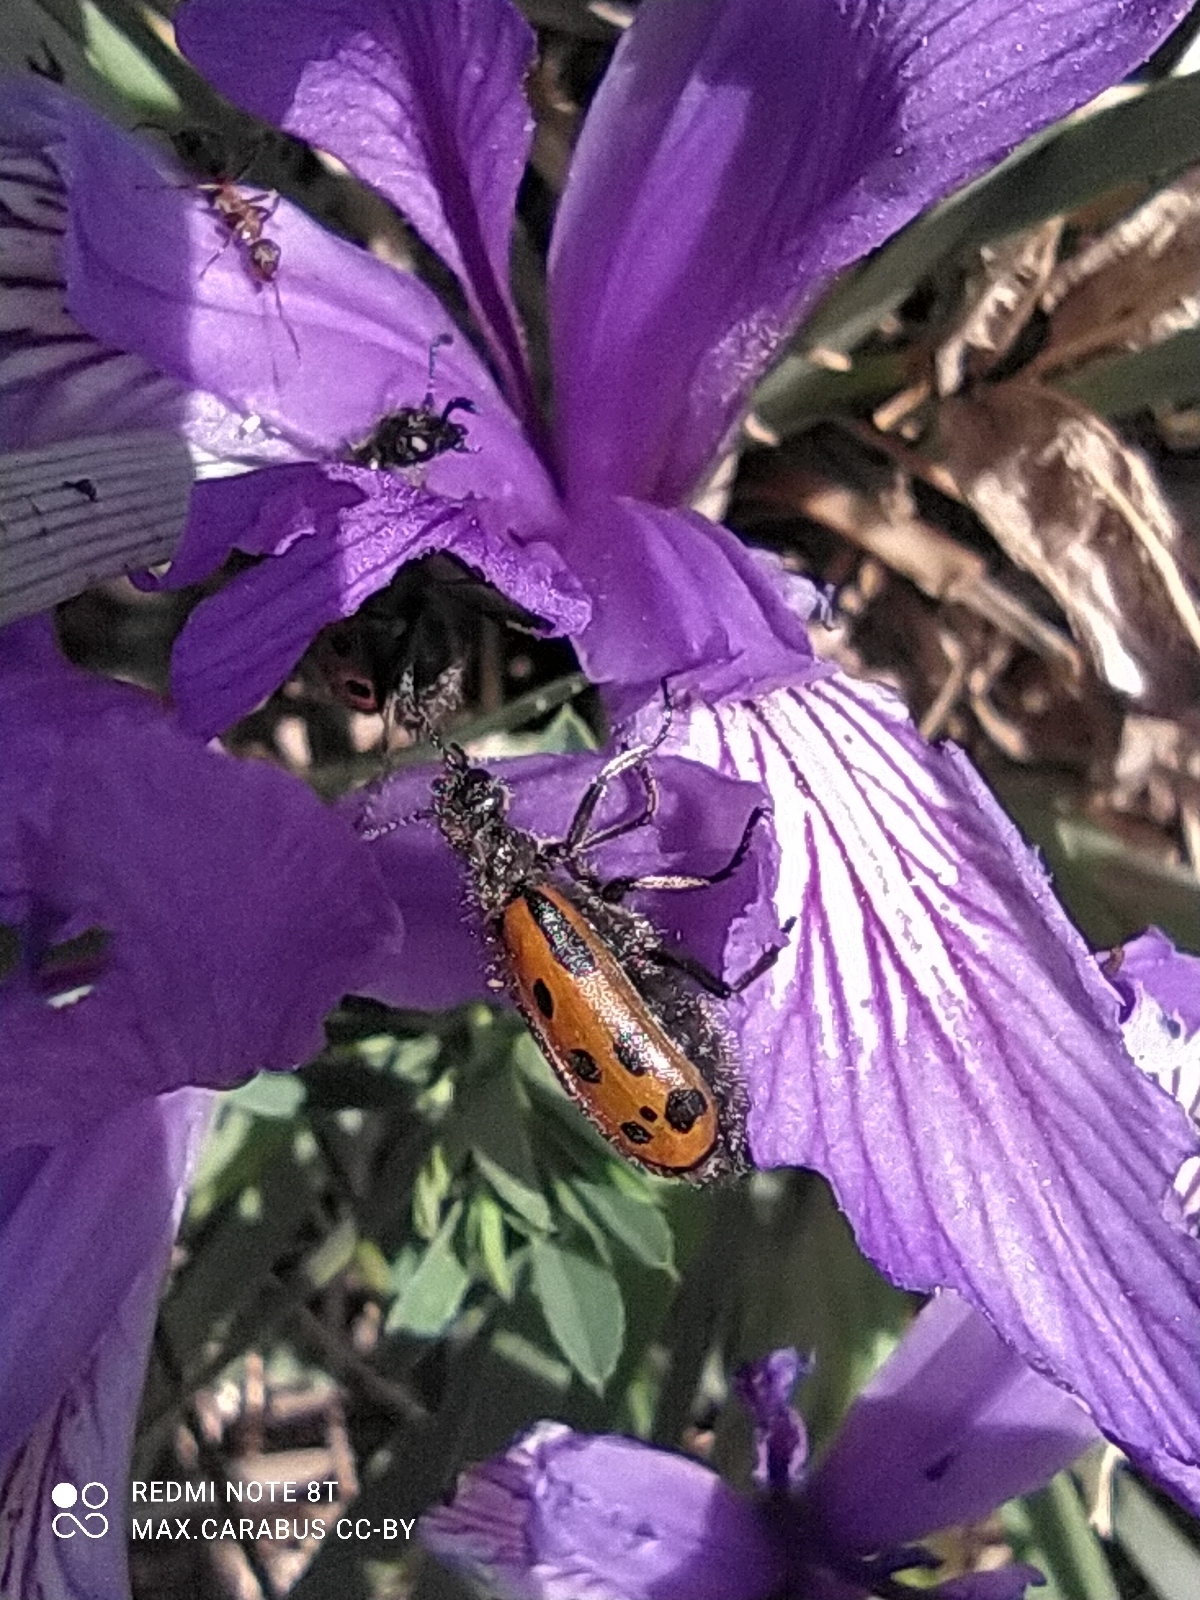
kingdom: Animalia
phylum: Arthropoda
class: Insecta
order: Coleoptera
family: Meloidae
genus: Hycleus
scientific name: Hycleus quatuordecimpunctatus
